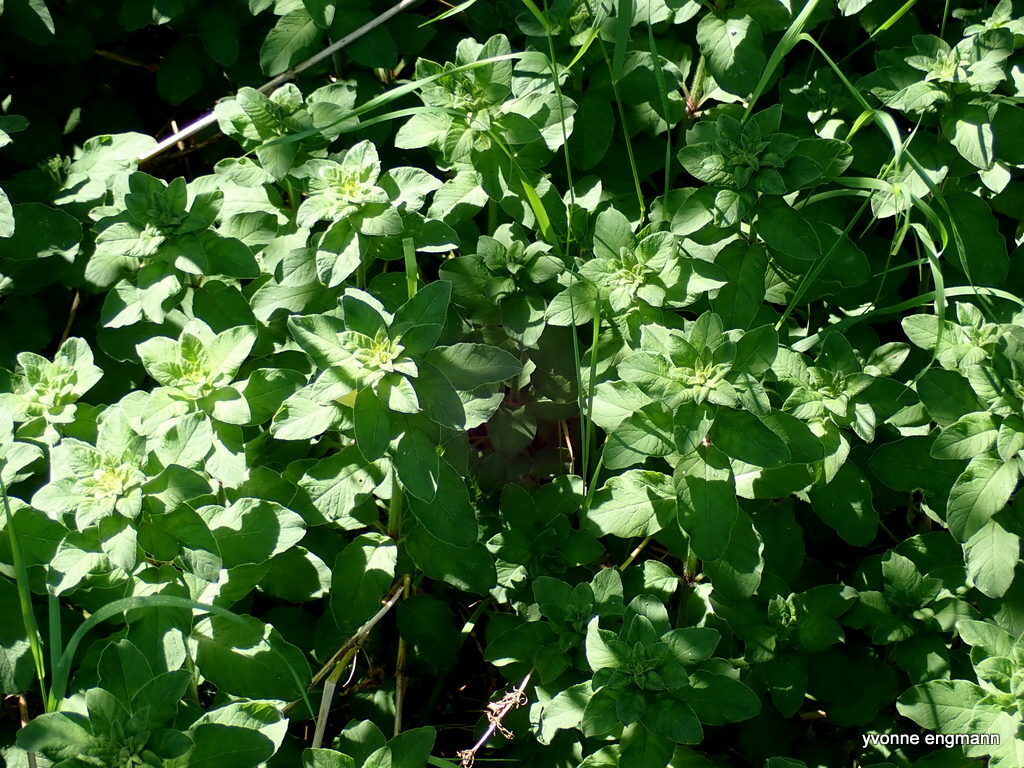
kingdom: Plantae
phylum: Tracheophyta
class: Magnoliopsida
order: Lamiales
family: Lamiaceae
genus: Origanum
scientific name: Origanum vulgare
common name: Wild marjoram
